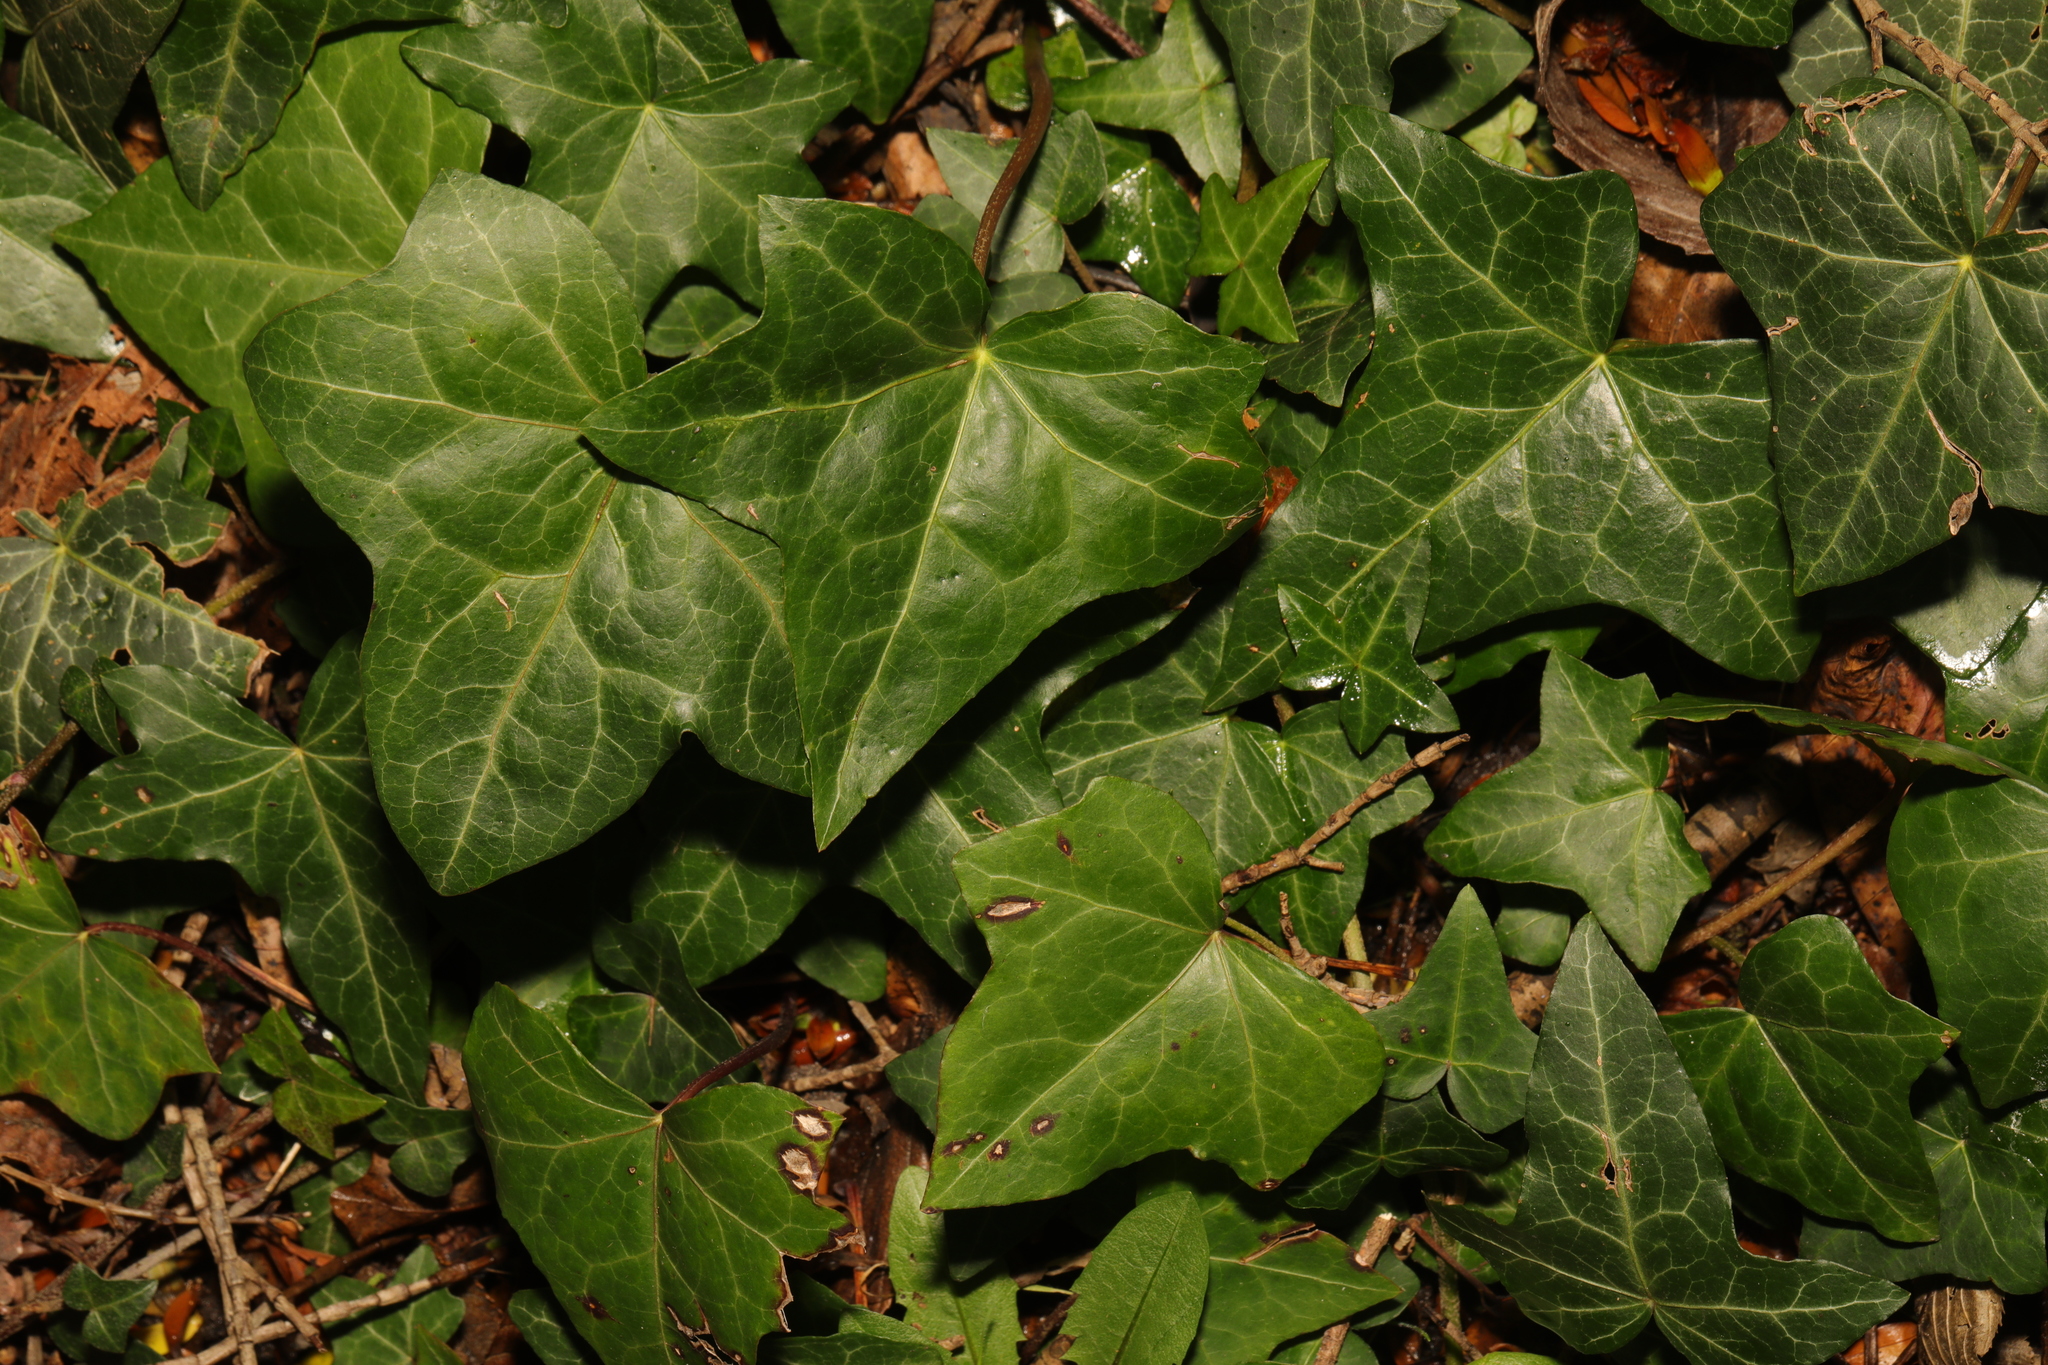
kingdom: Plantae
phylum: Tracheophyta
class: Magnoliopsida
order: Apiales
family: Araliaceae
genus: Hedera
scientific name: Hedera helix
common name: Ivy
